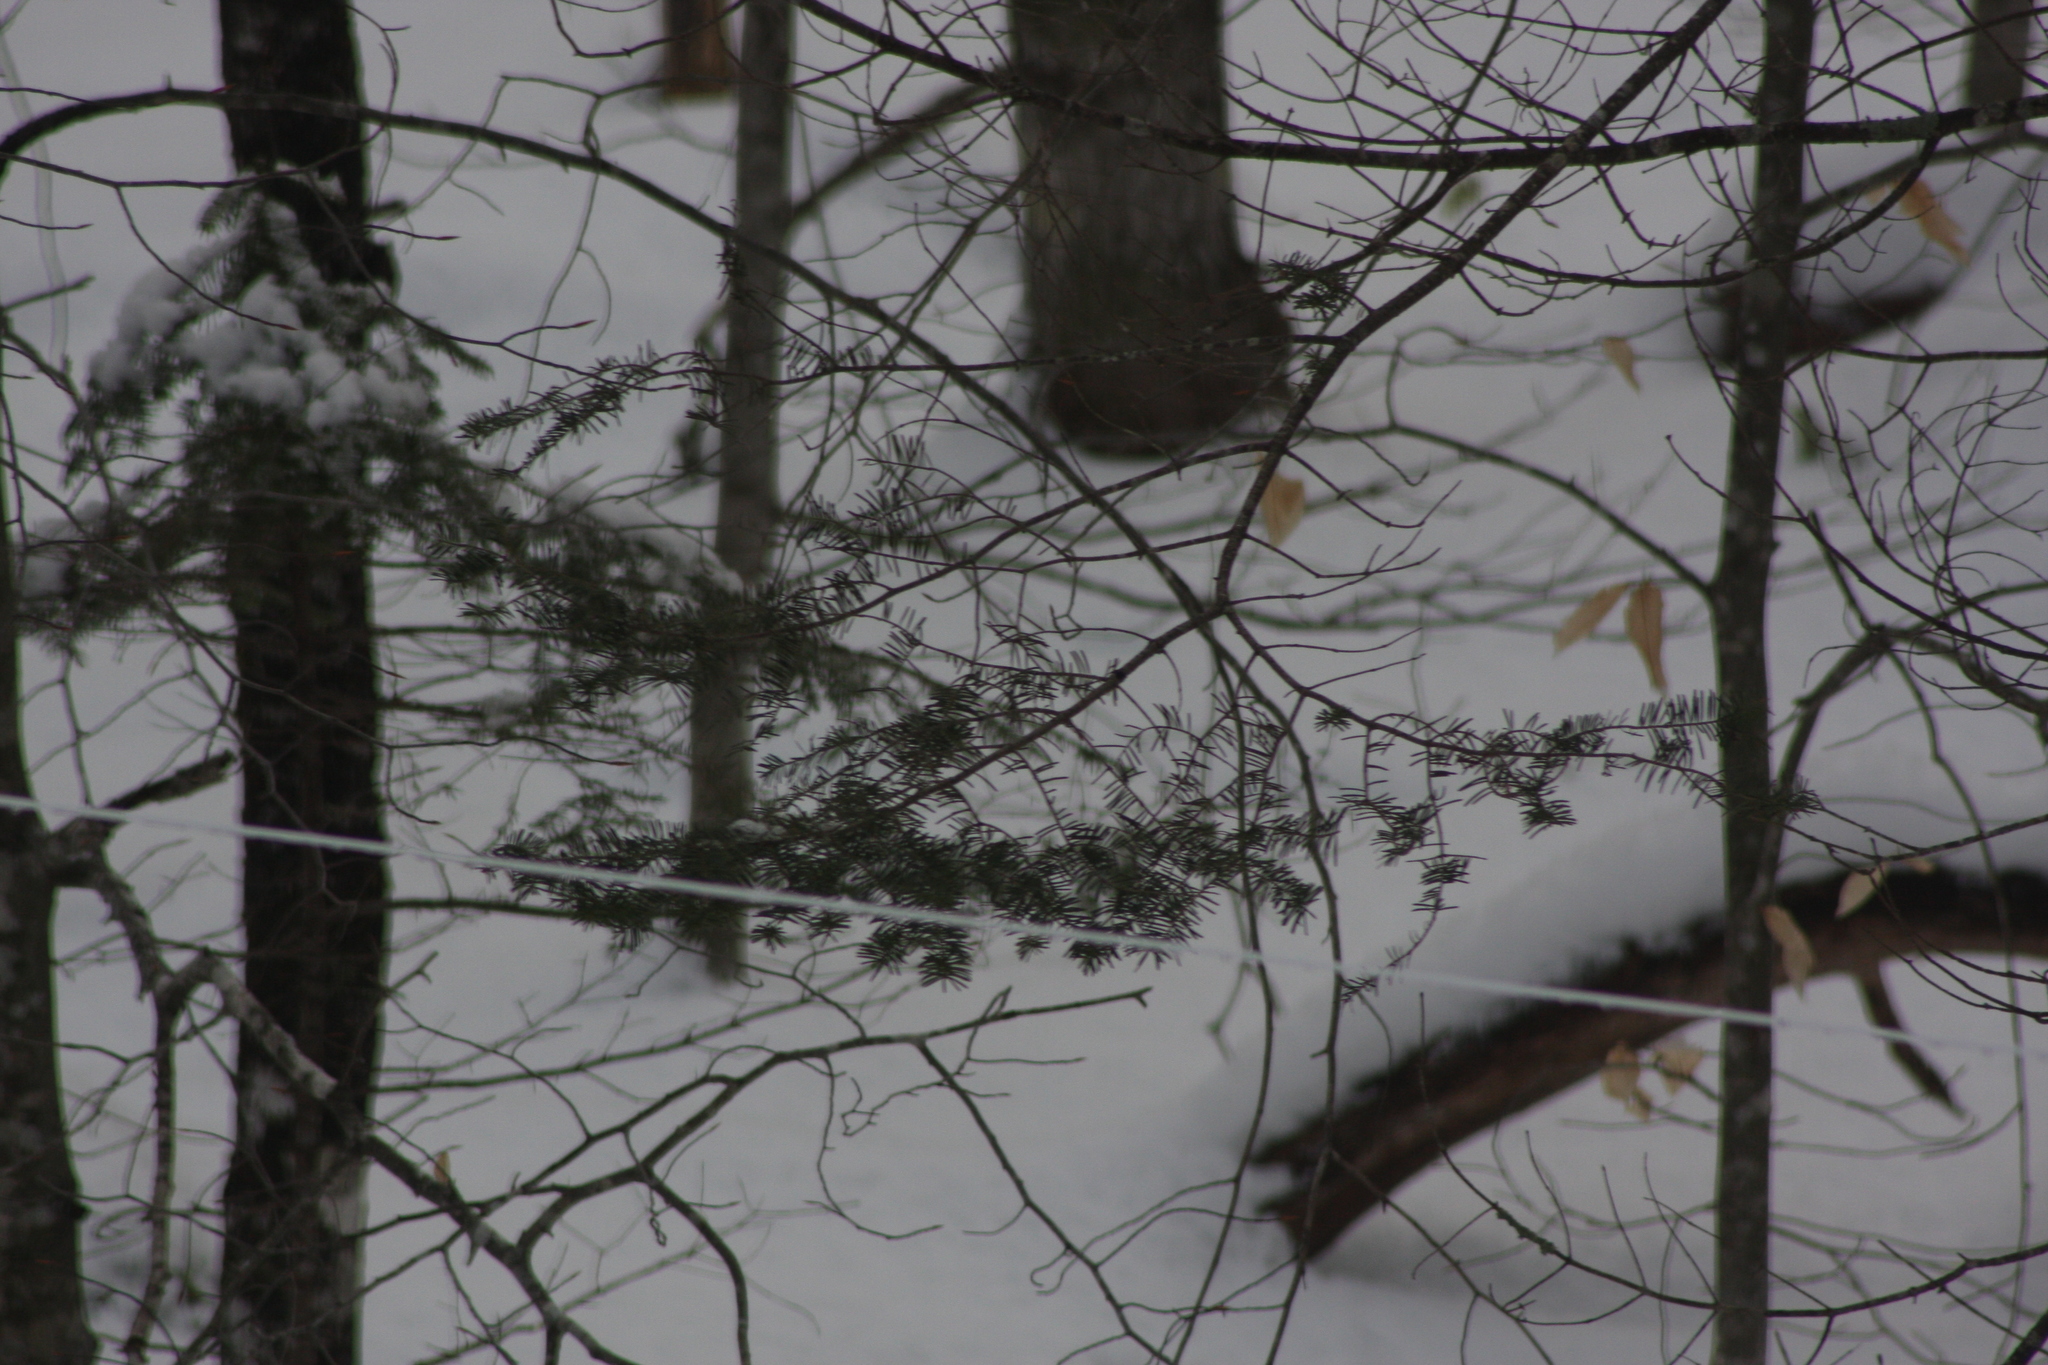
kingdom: Plantae
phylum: Tracheophyta
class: Pinopsida
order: Pinales
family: Pinaceae
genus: Abies
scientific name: Abies balsamea
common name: Balsam fir
